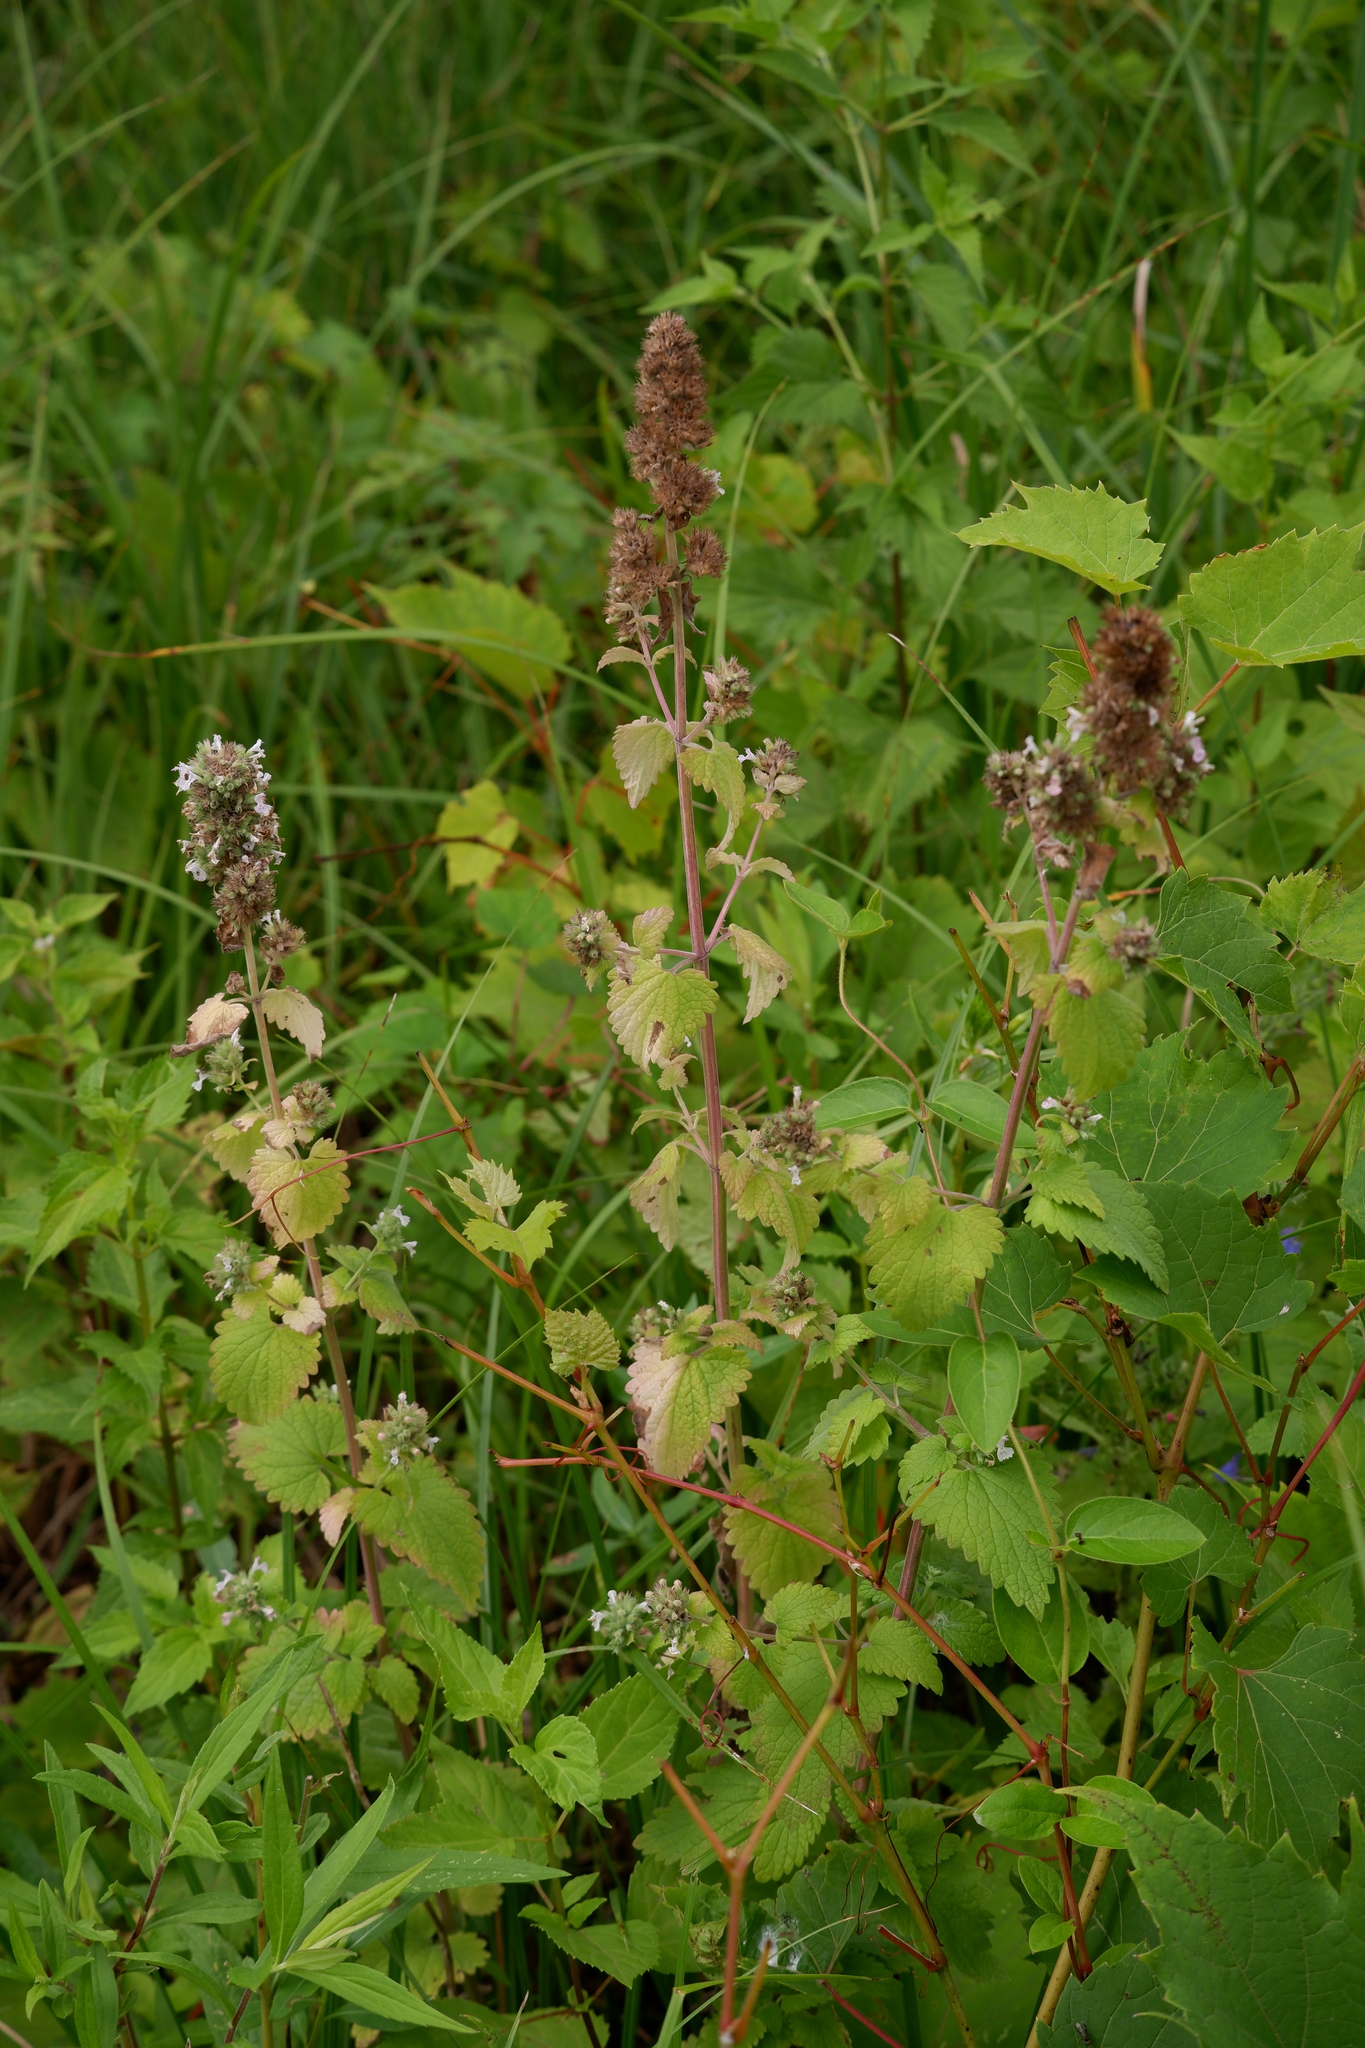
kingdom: Plantae
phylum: Tracheophyta
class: Magnoliopsida
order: Lamiales
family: Lamiaceae
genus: Nepeta
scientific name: Nepeta cataria
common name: Catnip
